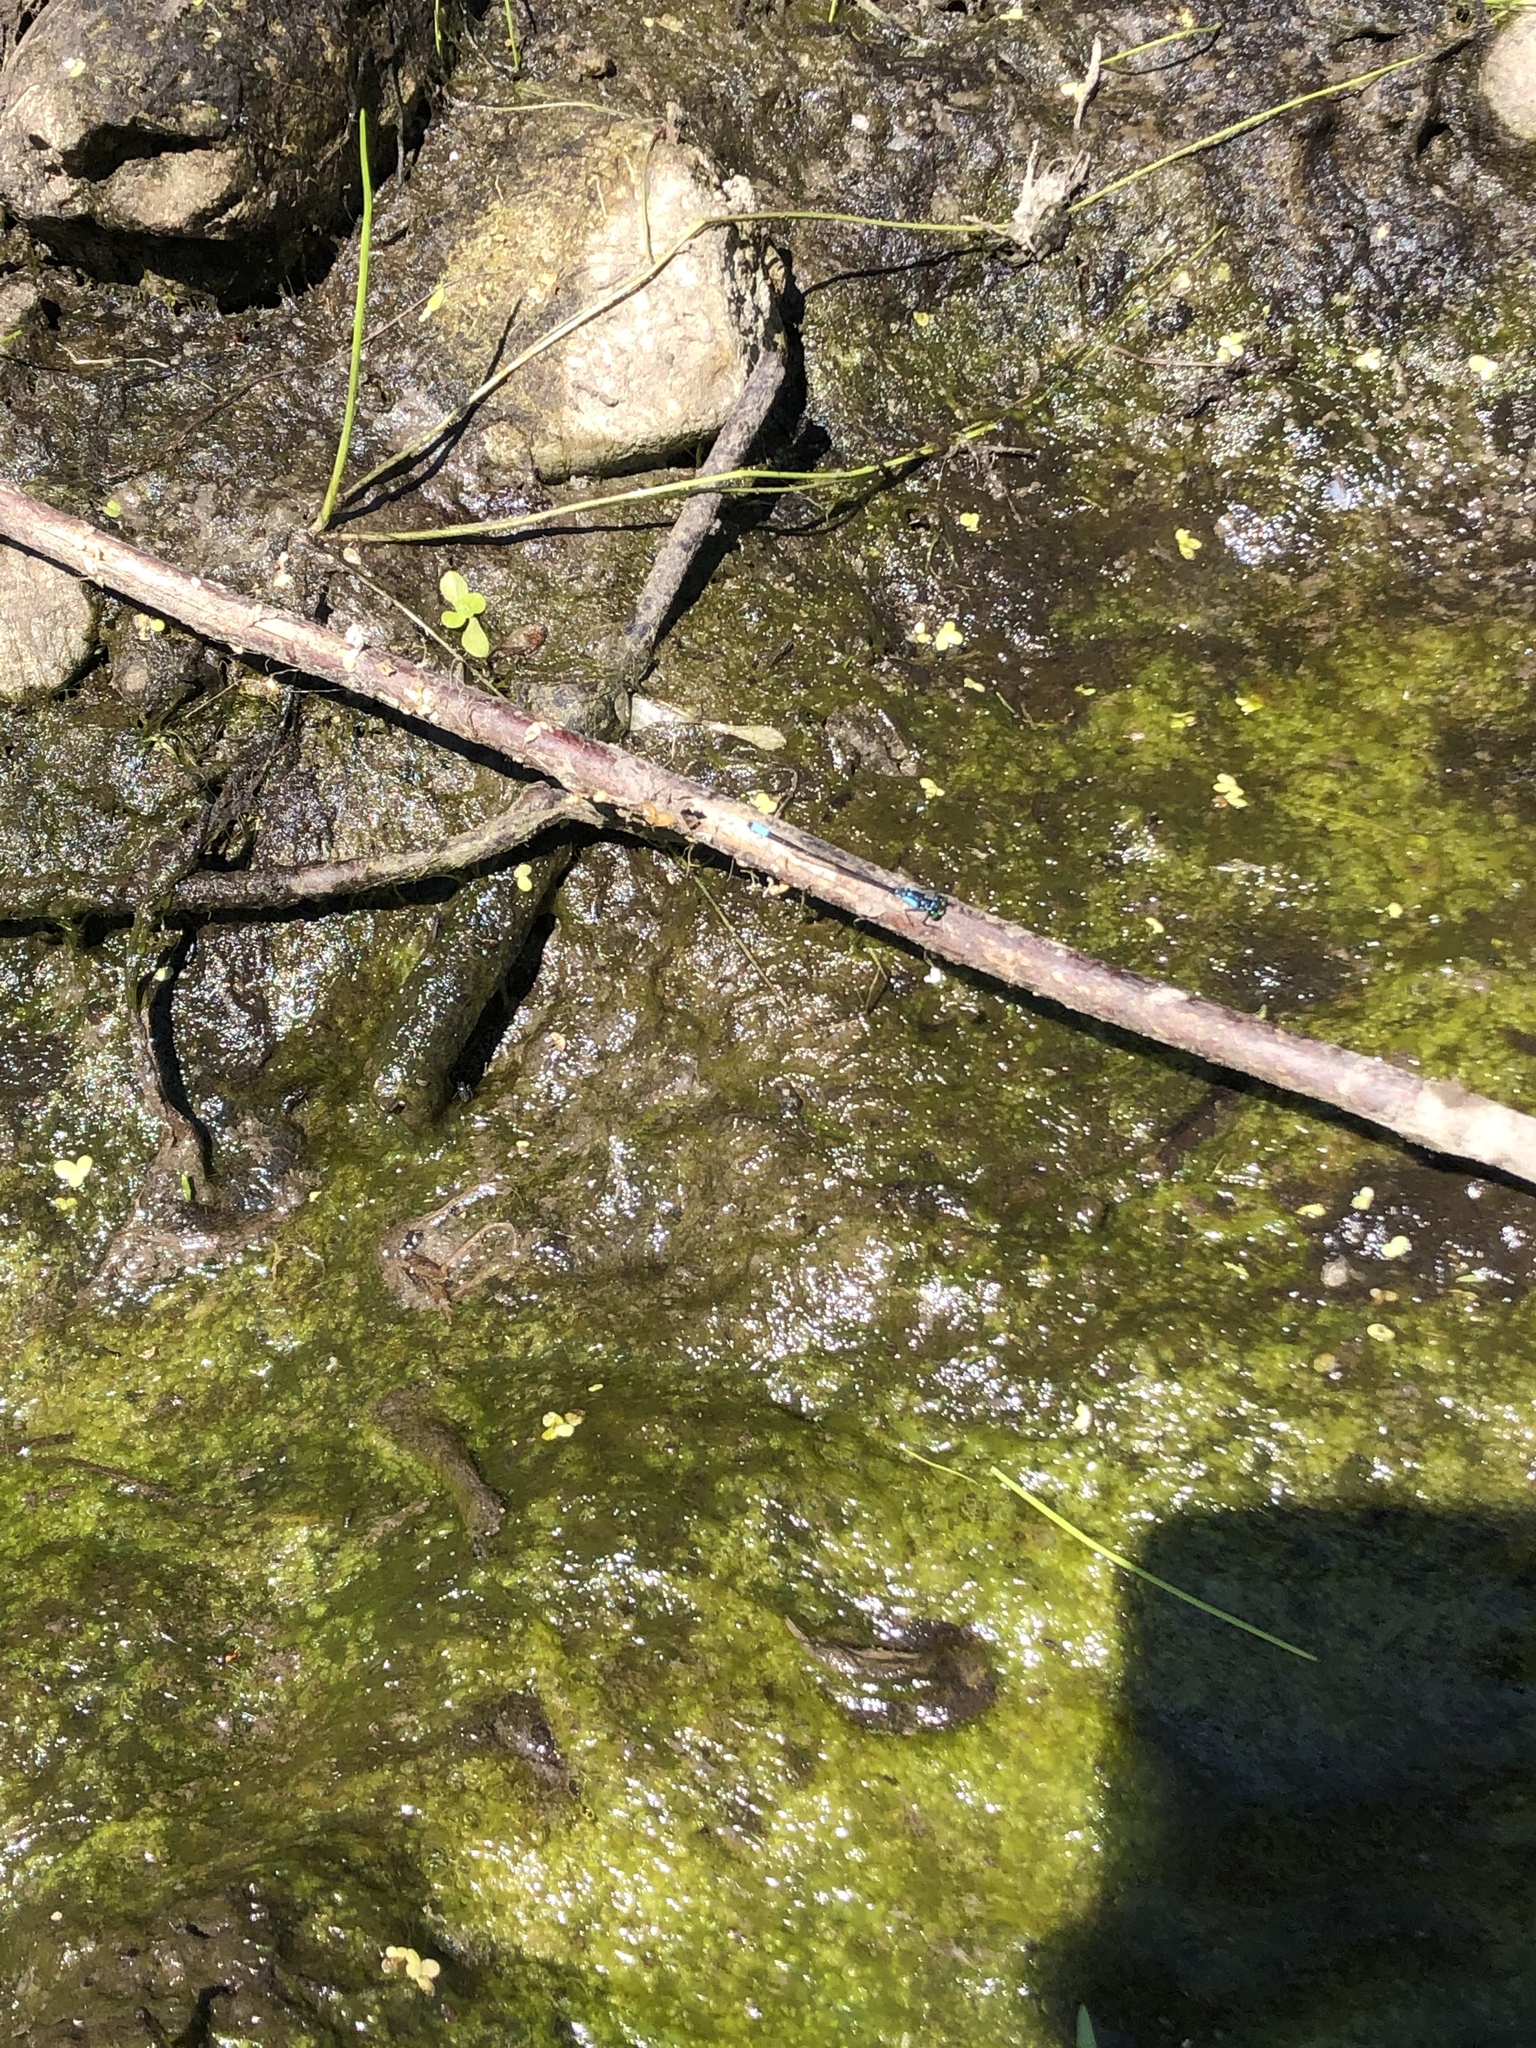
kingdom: Animalia
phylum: Arthropoda
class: Insecta
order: Odonata
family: Coenagrionidae
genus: Ischnura
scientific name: Ischnura cervula
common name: Pacific forktail
